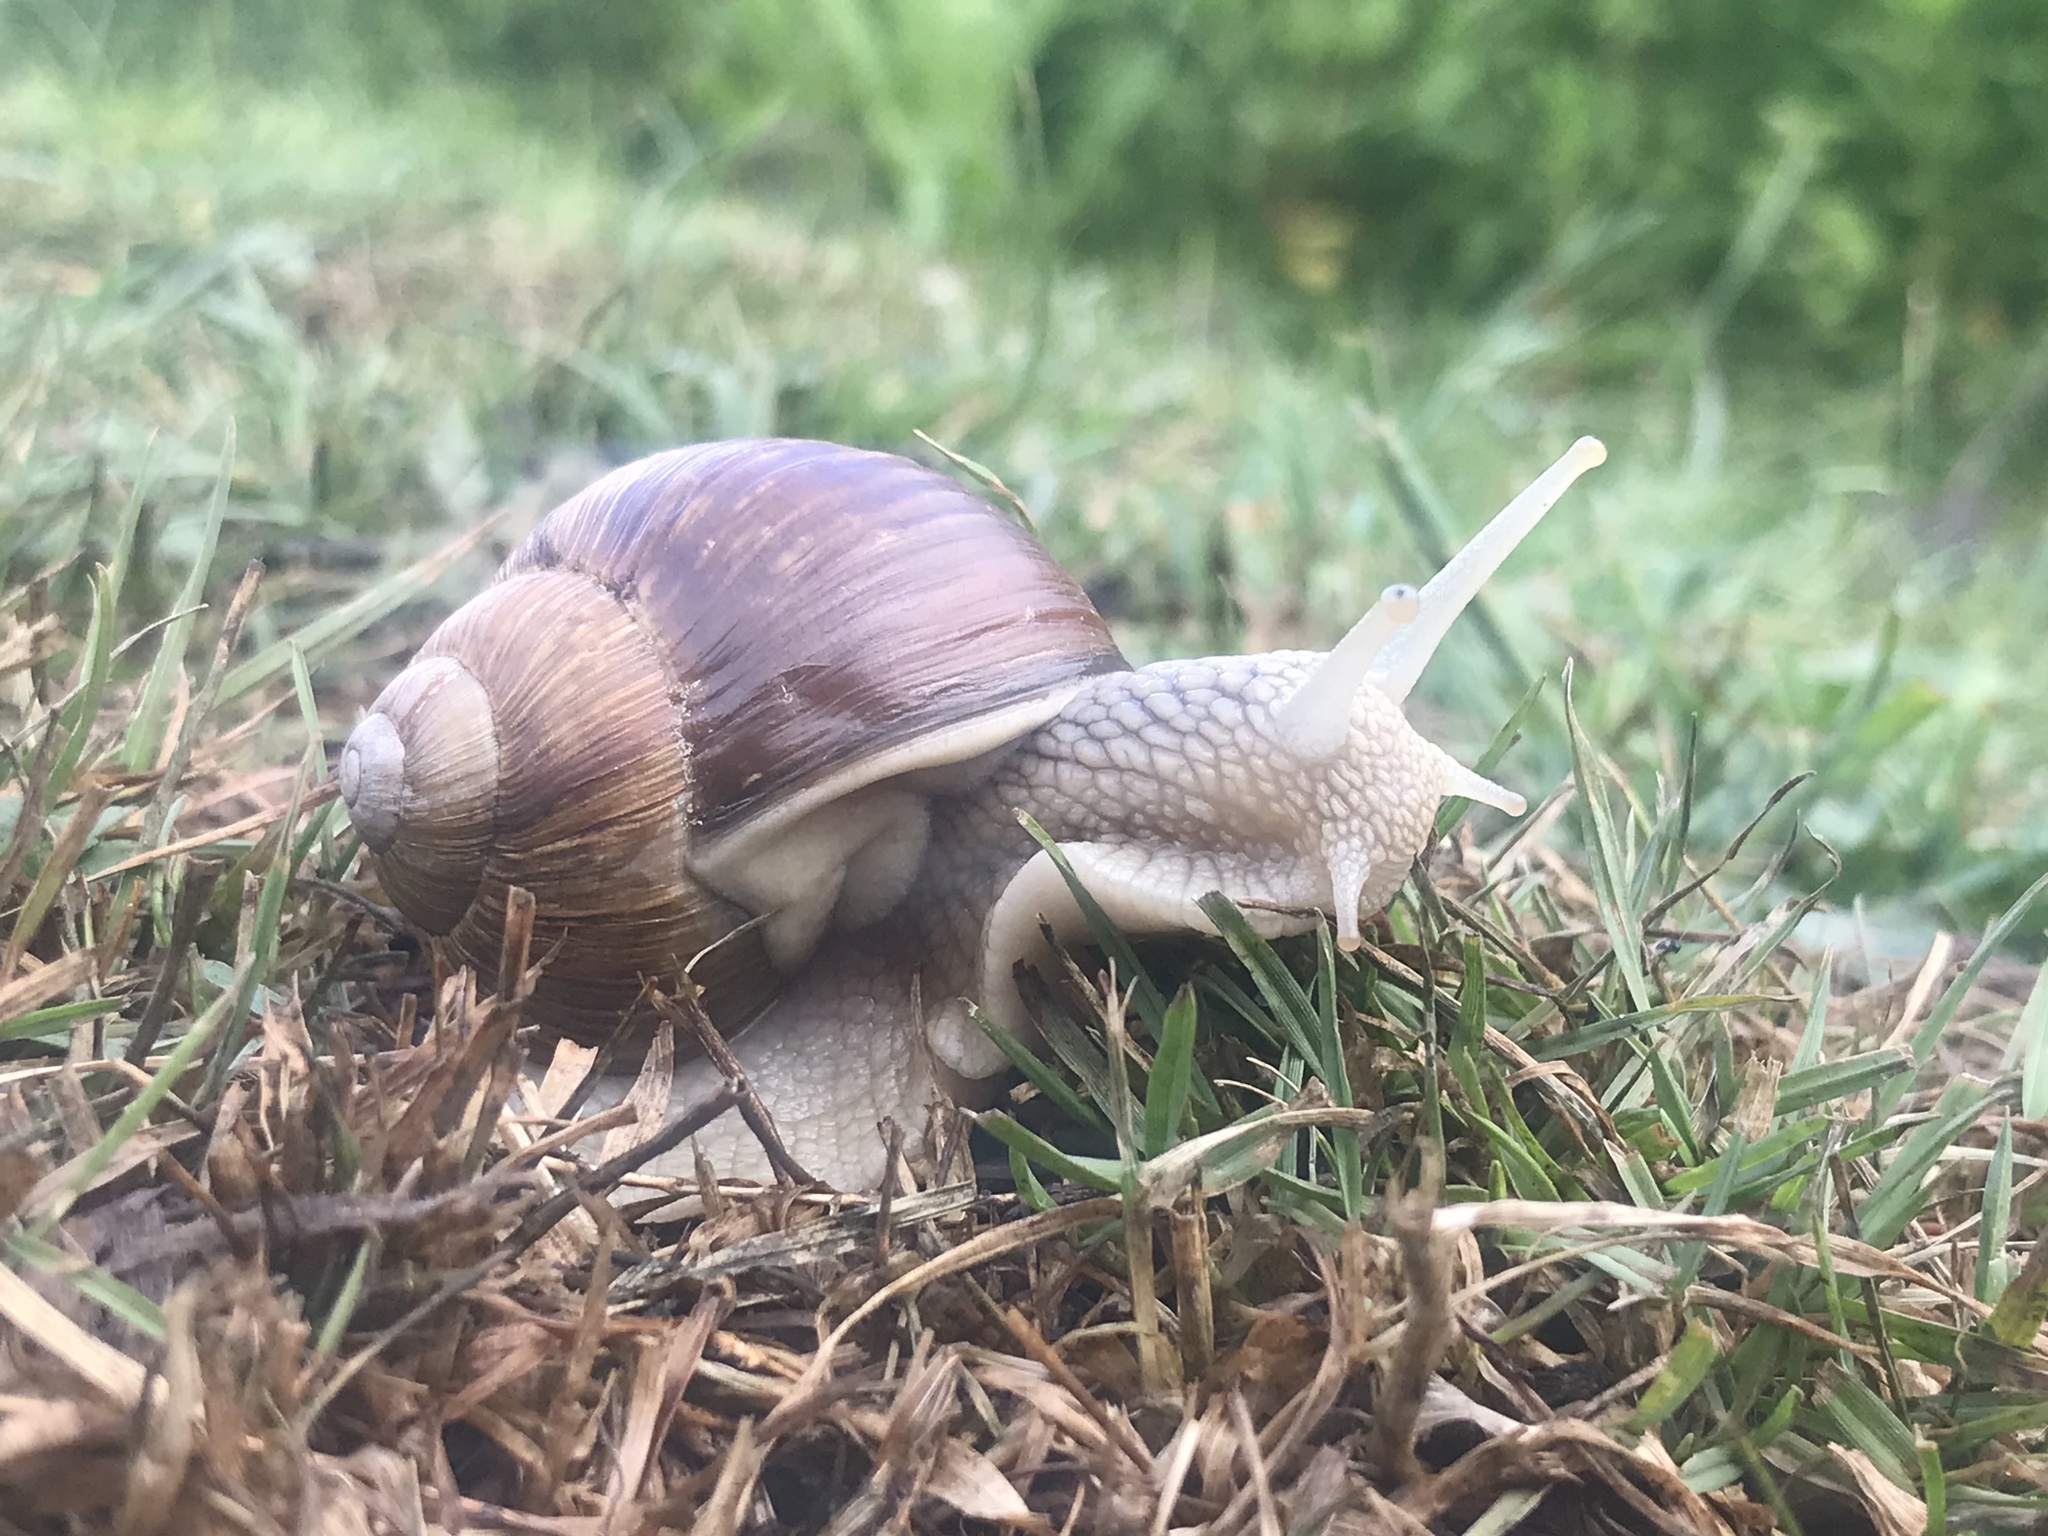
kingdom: Animalia
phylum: Mollusca
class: Gastropoda
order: Stylommatophora
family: Helicidae
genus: Helix
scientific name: Helix pomatia
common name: Roman snail
